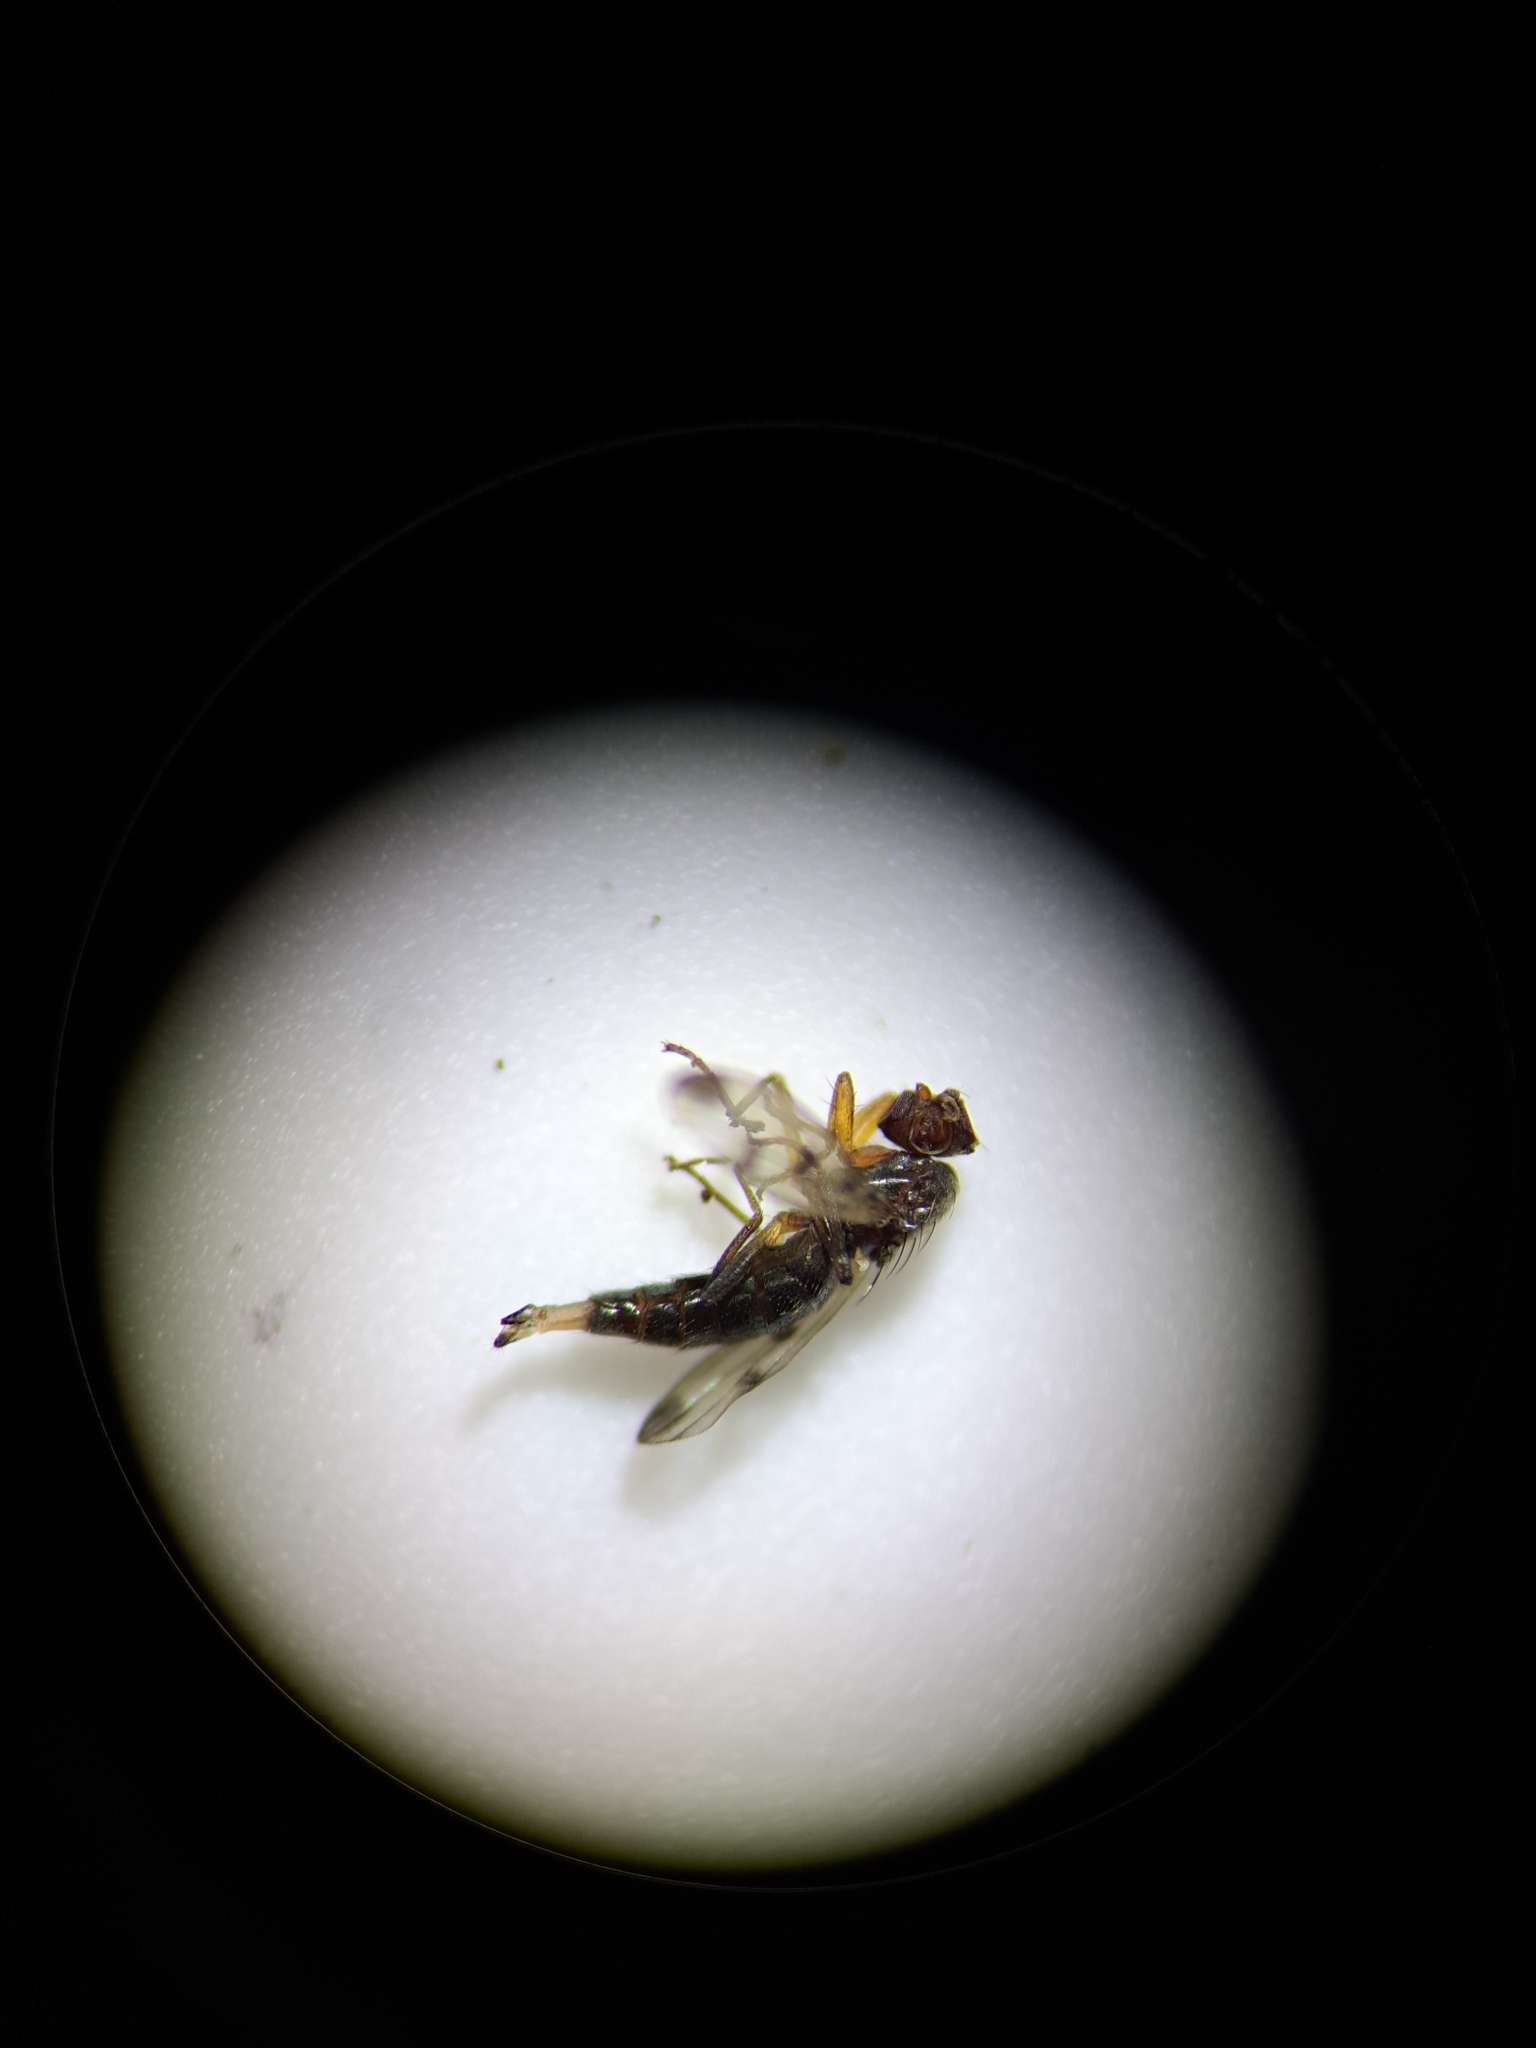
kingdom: Animalia
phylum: Arthropoda
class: Insecta
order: Diptera
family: Opomyzidae
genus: Geomyza
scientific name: Geomyza tripunctata
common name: Cereal fly
